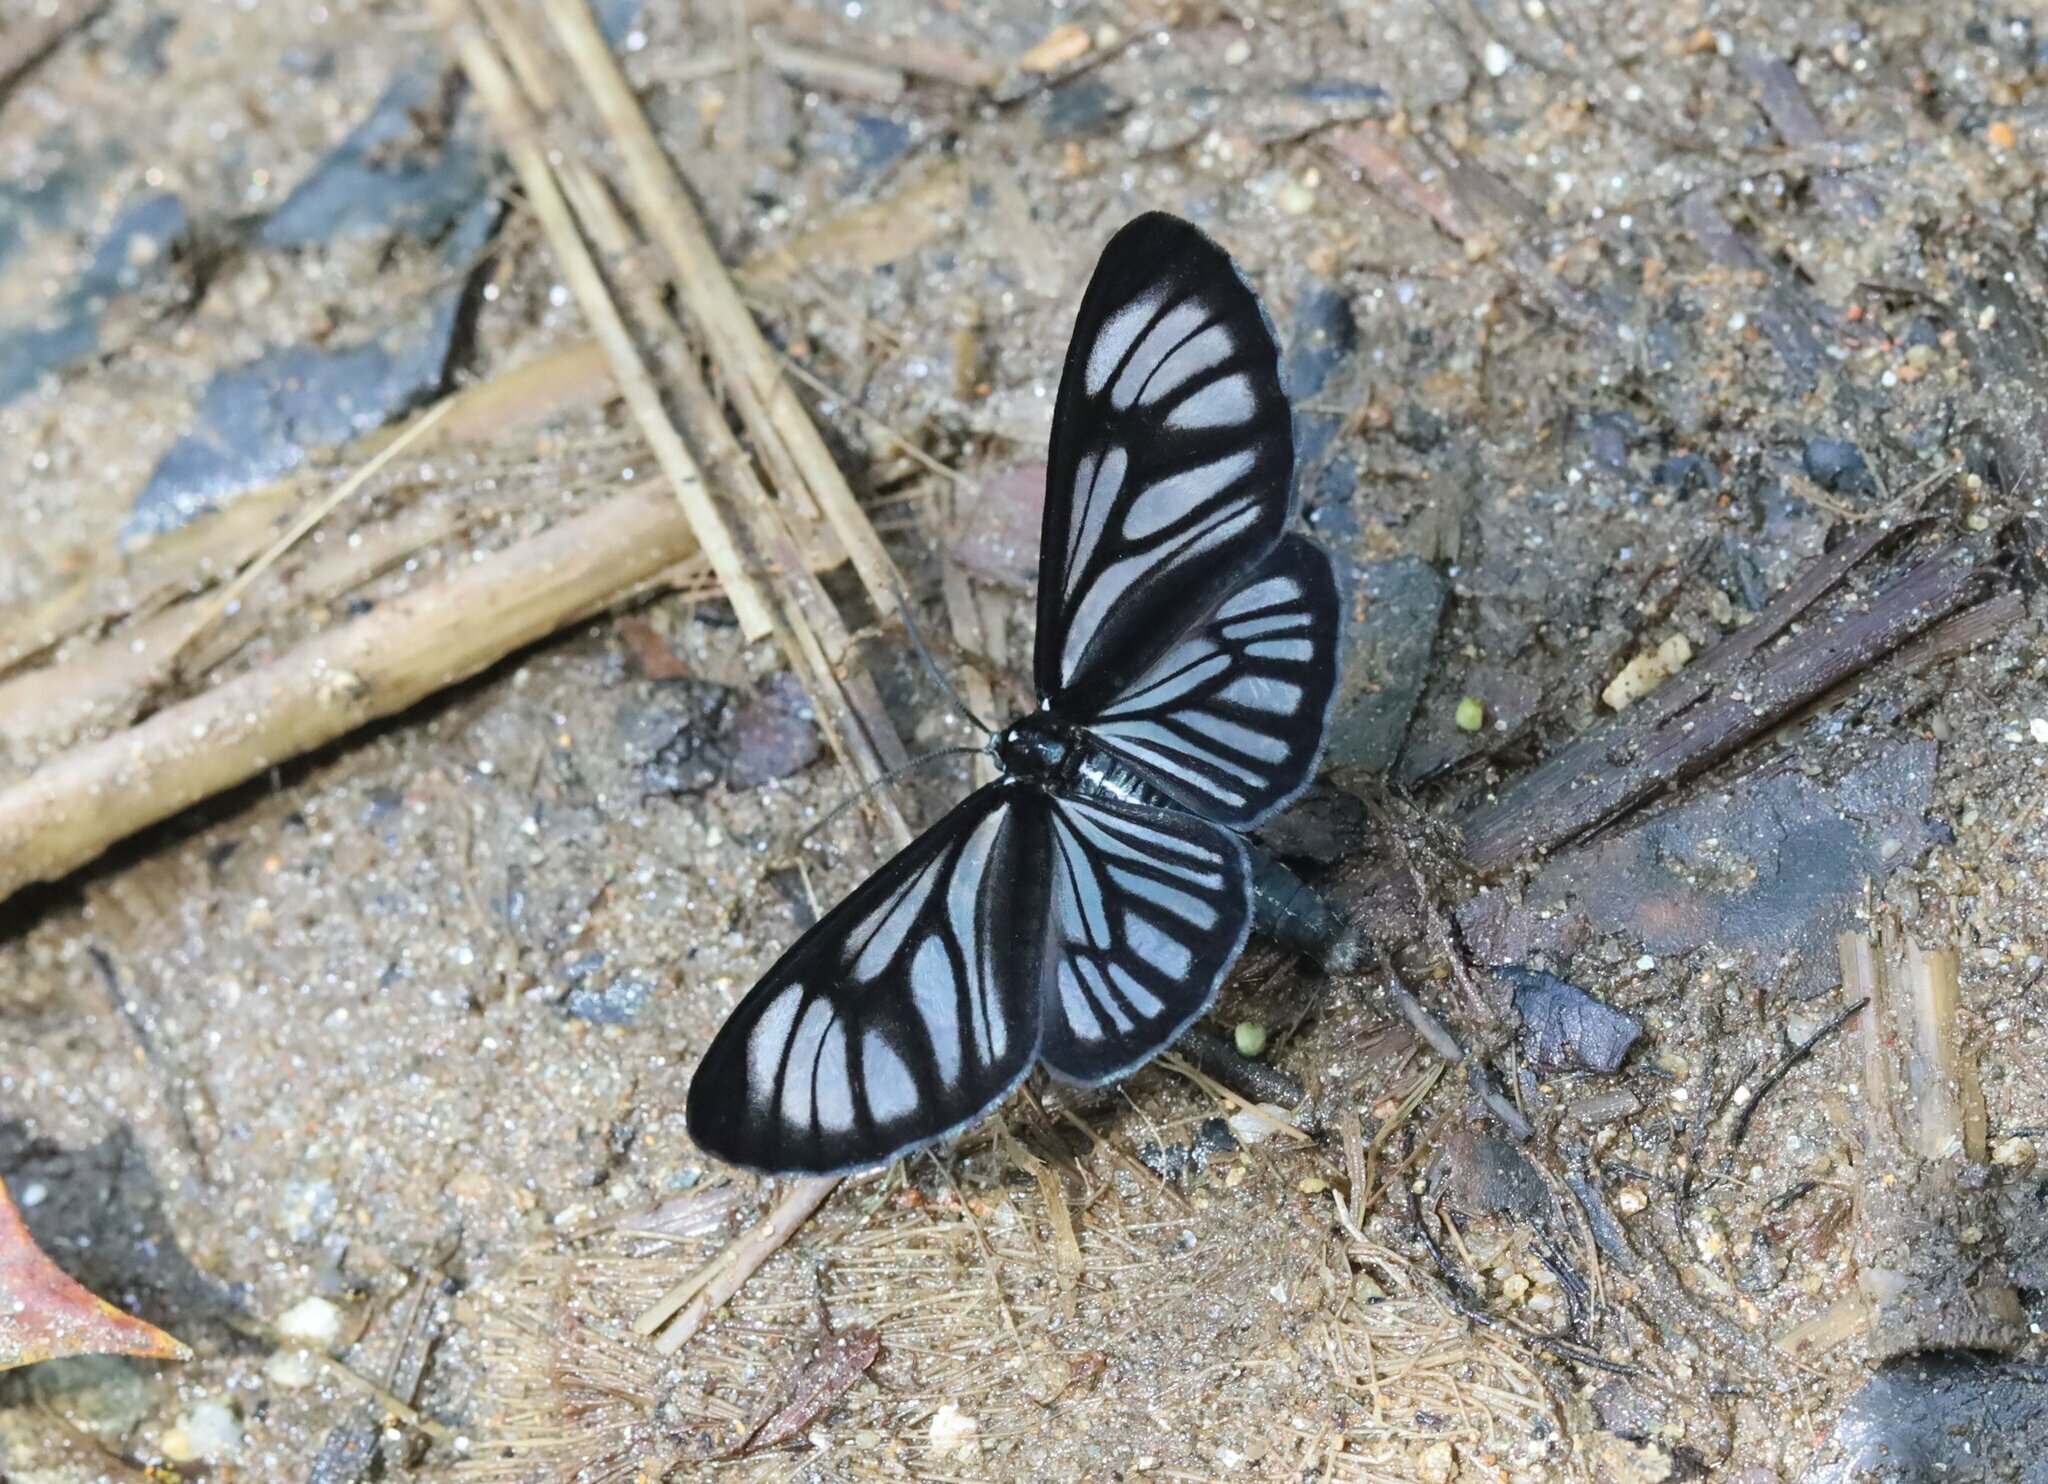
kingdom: Animalia
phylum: Arthropoda
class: Insecta
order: Lepidoptera
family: Geometridae
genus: Gonora
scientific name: Gonora hyelosioides
